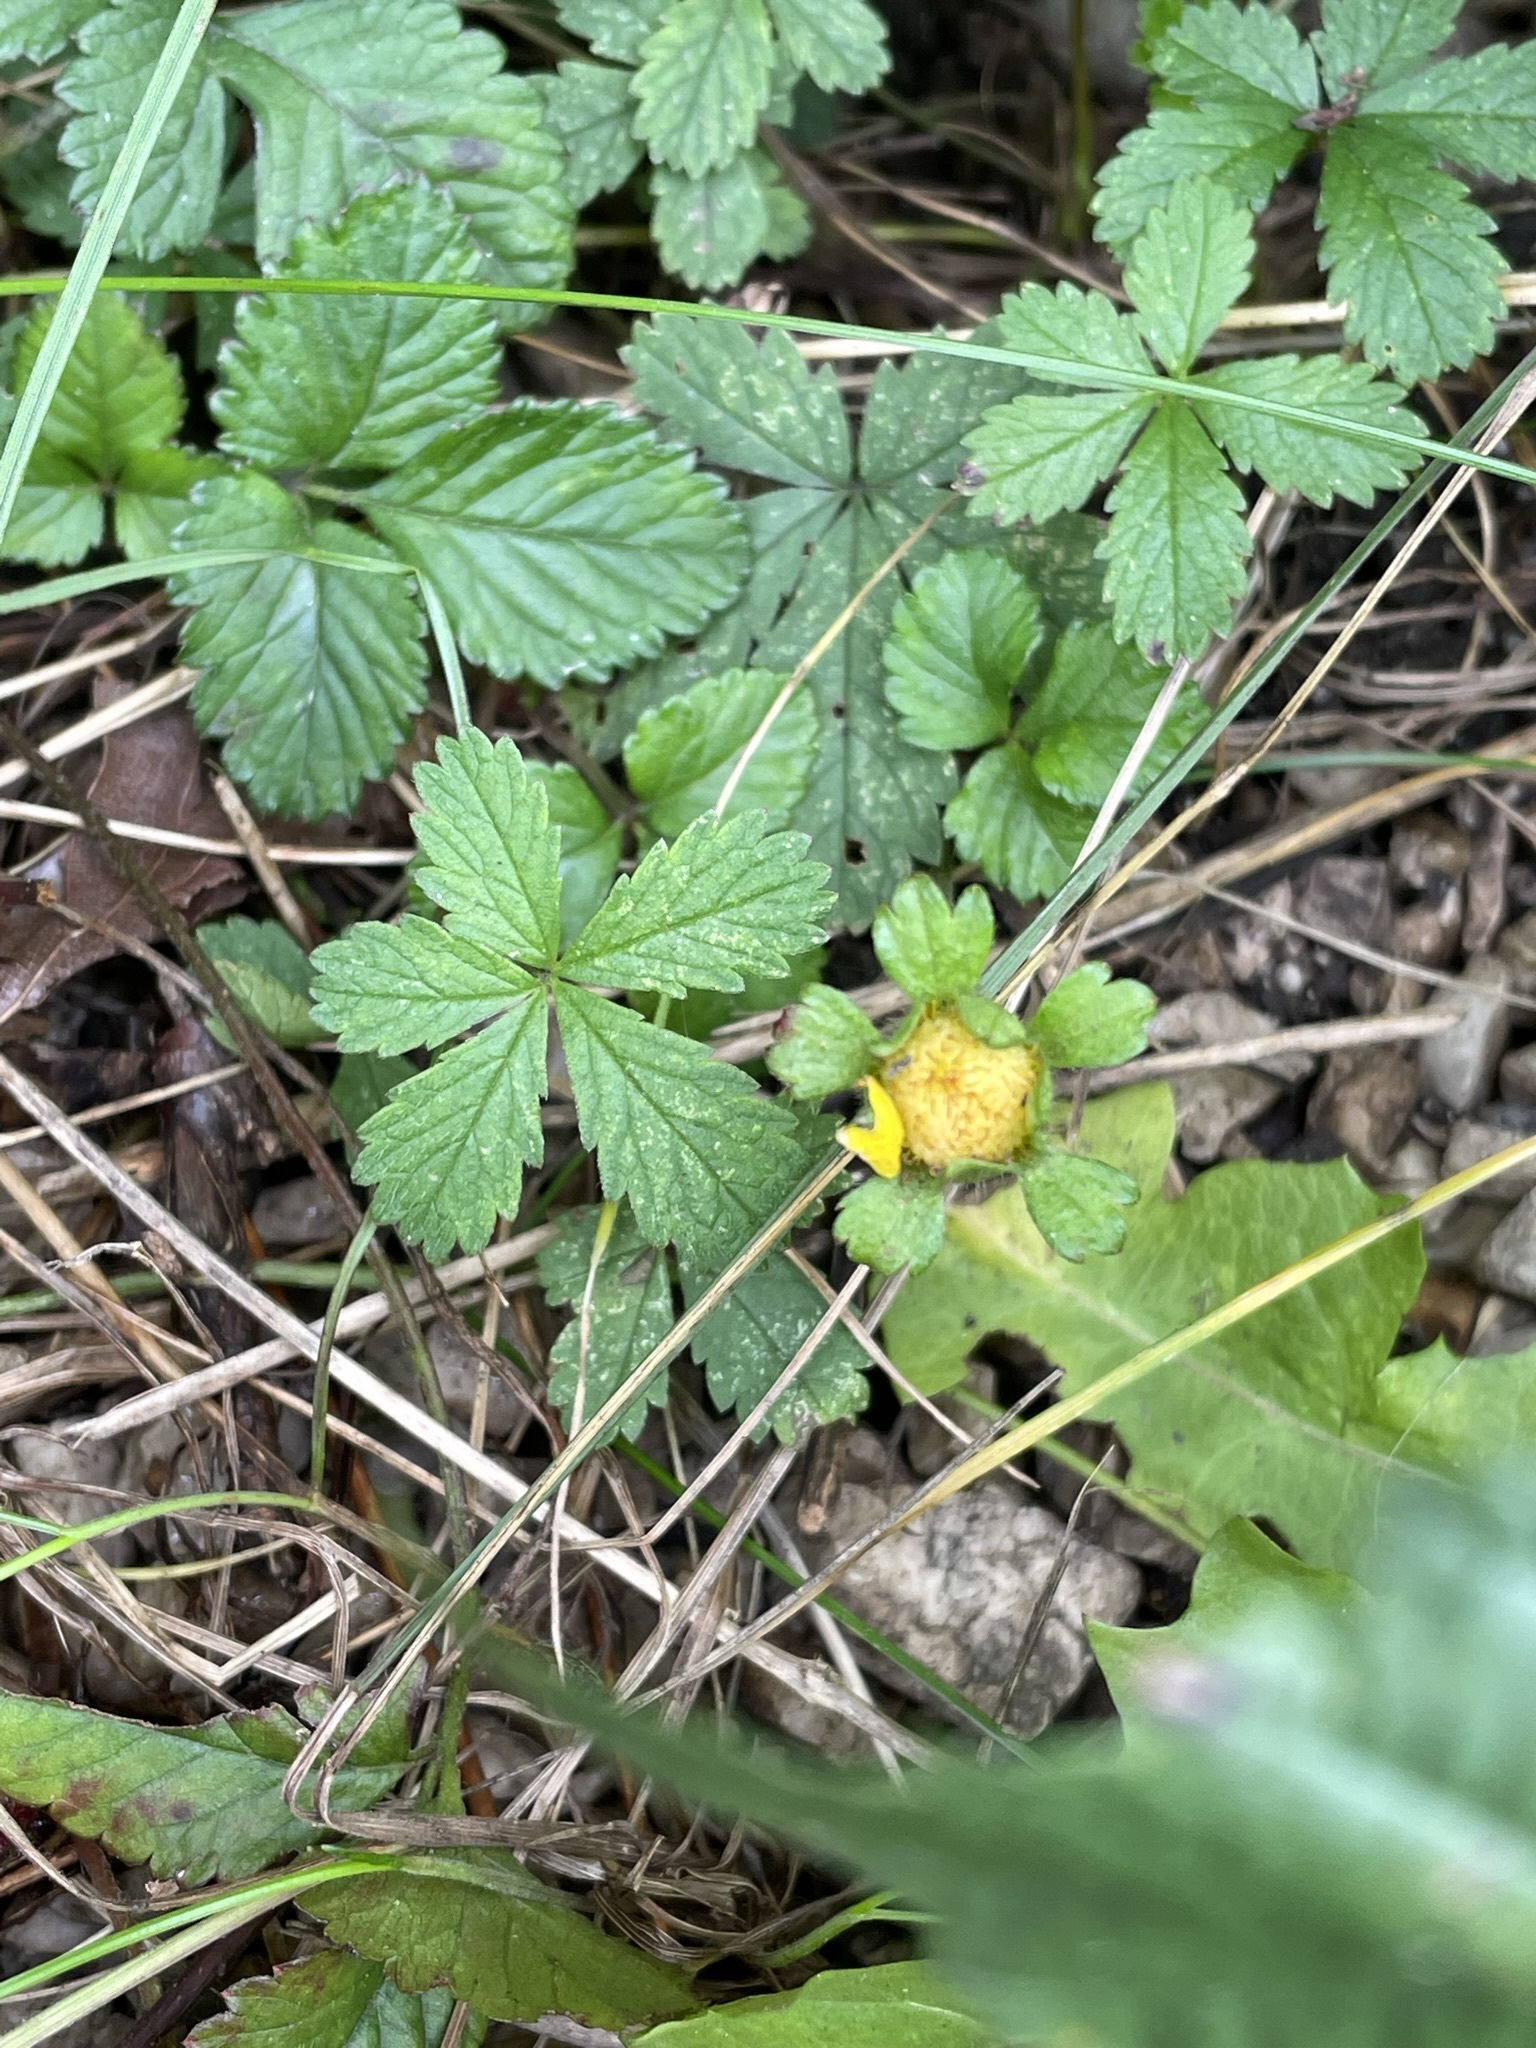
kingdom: Plantae
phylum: Tracheophyta
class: Magnoliopsida
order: Rosales
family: Rosaceae
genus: Potentilla
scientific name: Potentilla indica
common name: Yellow-flowered strawberry
